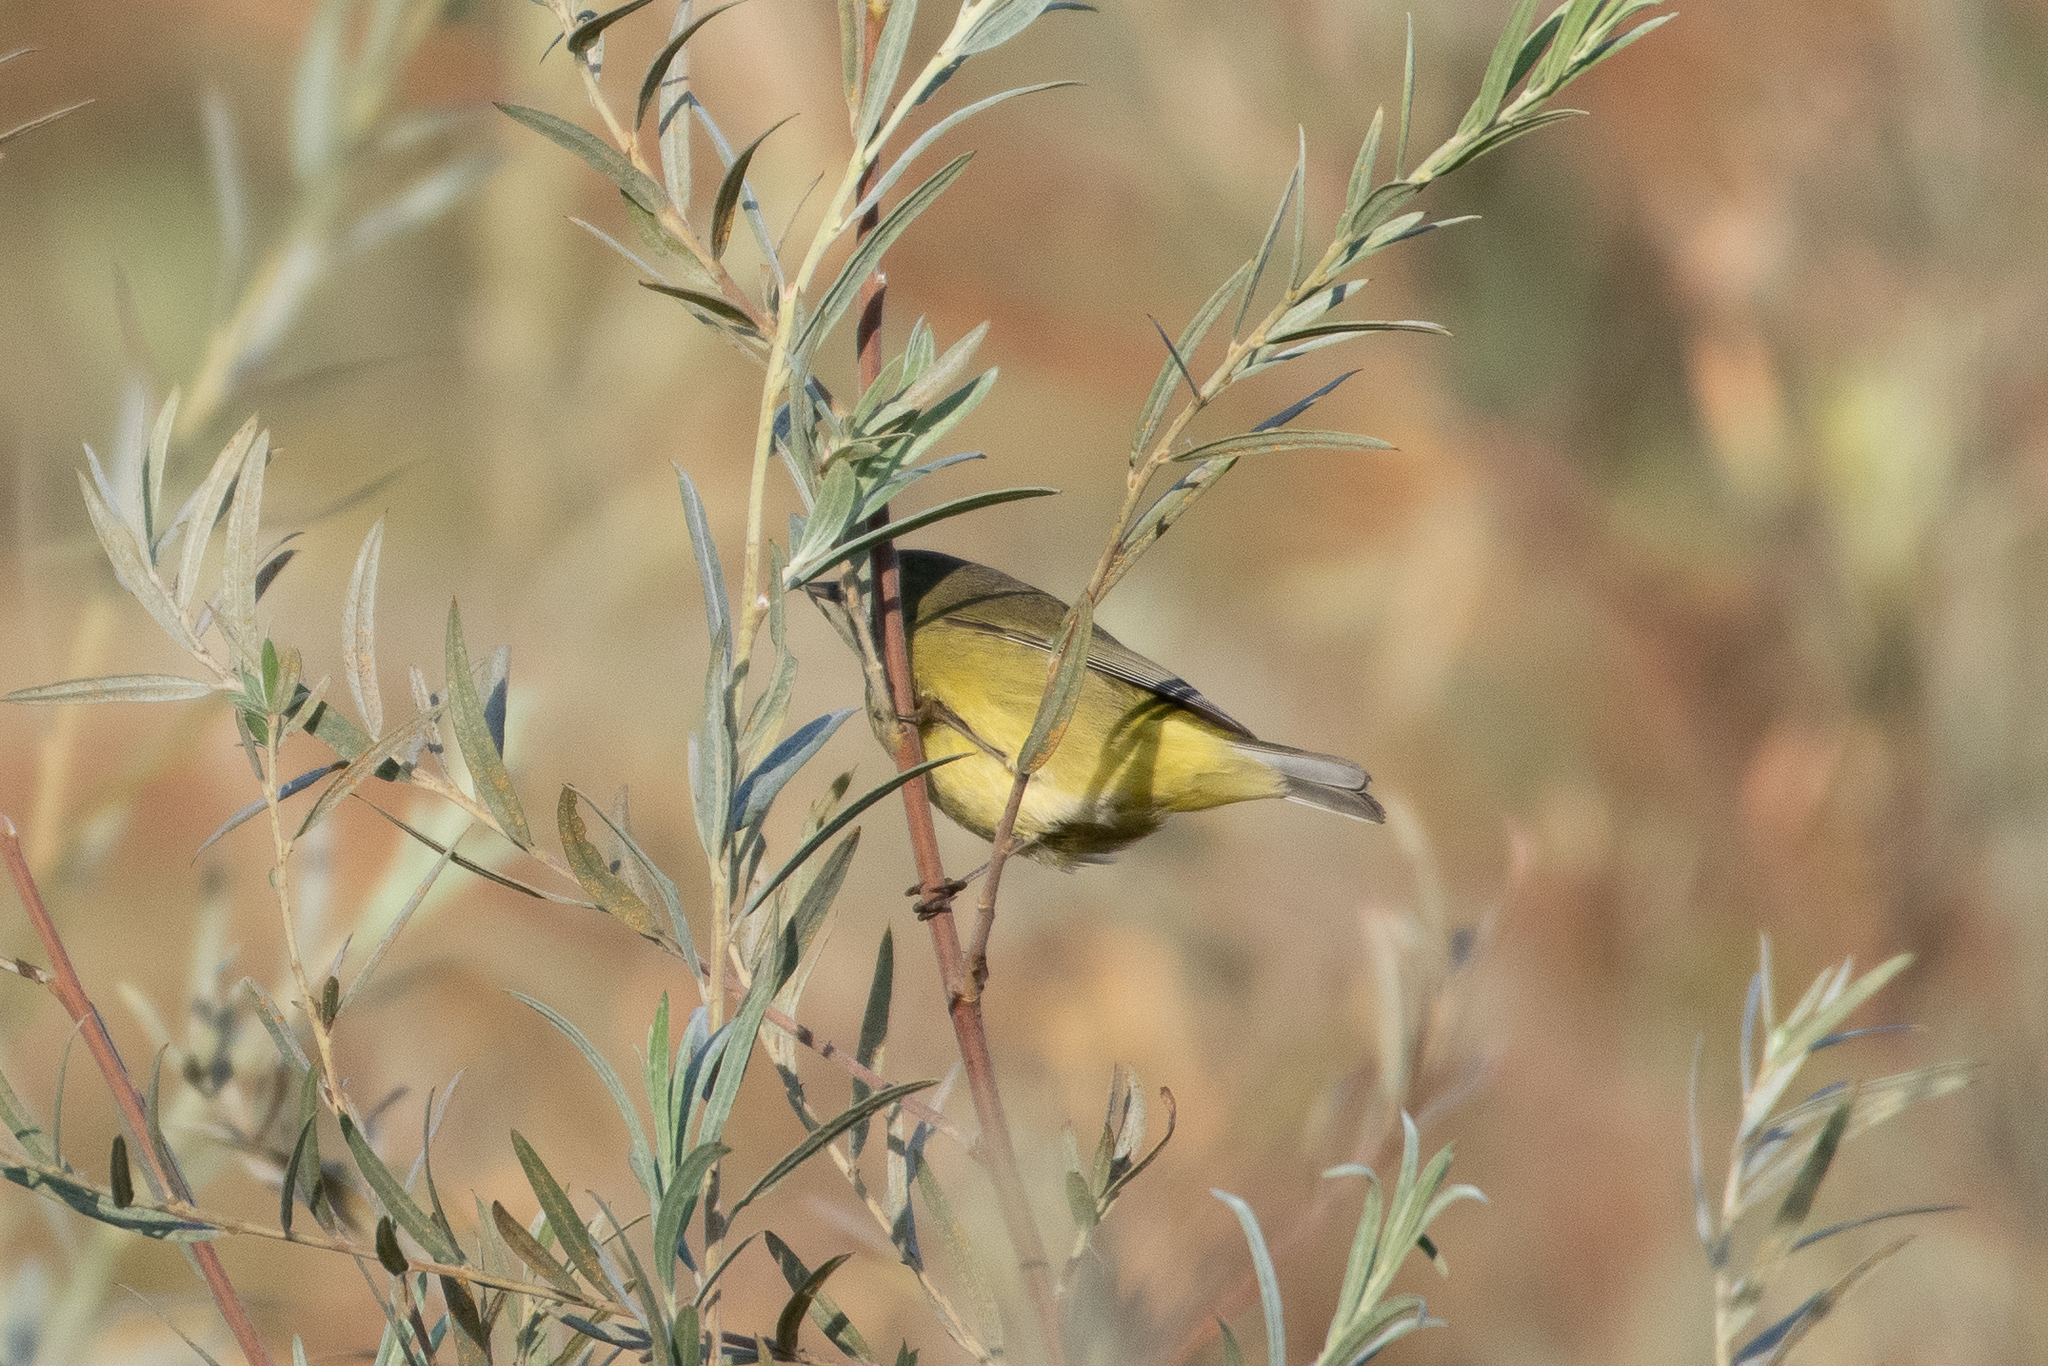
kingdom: Animalia
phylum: Chordata
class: Aves
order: Passeriformes
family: Parulidae
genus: Leiothlypis
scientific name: Leiothlypis celata
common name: Orange-crowned warbler
